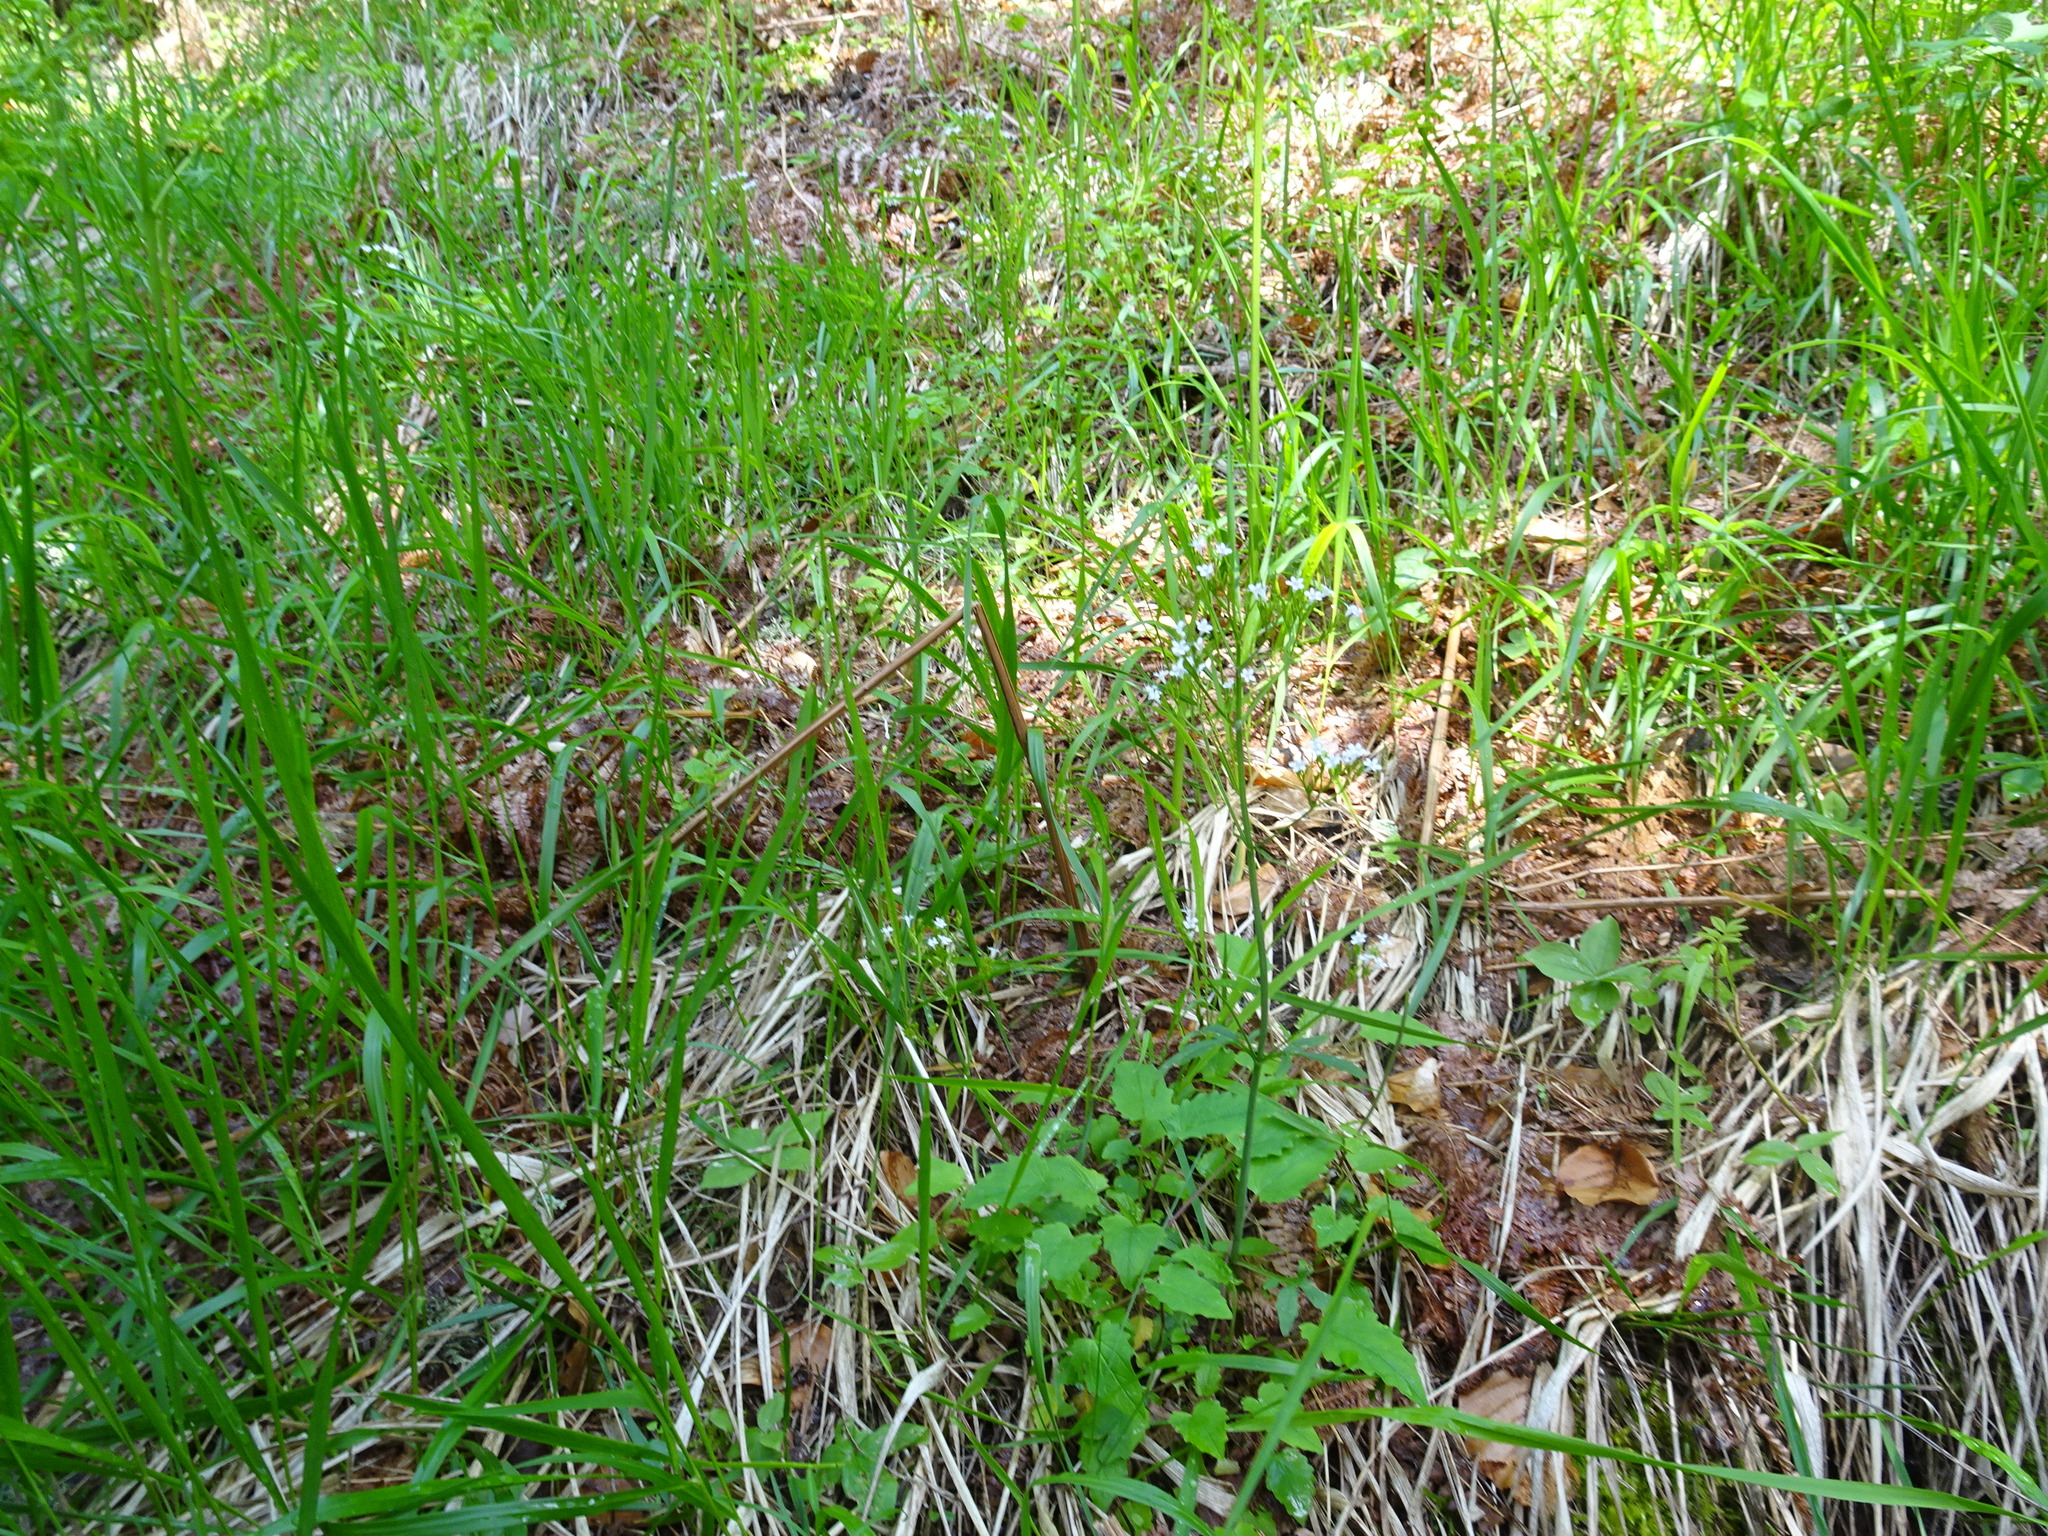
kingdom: Plantae
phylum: Tracheophyta
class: Magnoliopsida
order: Dipsacales
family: Caprifoliaceae
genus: Valeriana
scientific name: Valeriana tripteris
